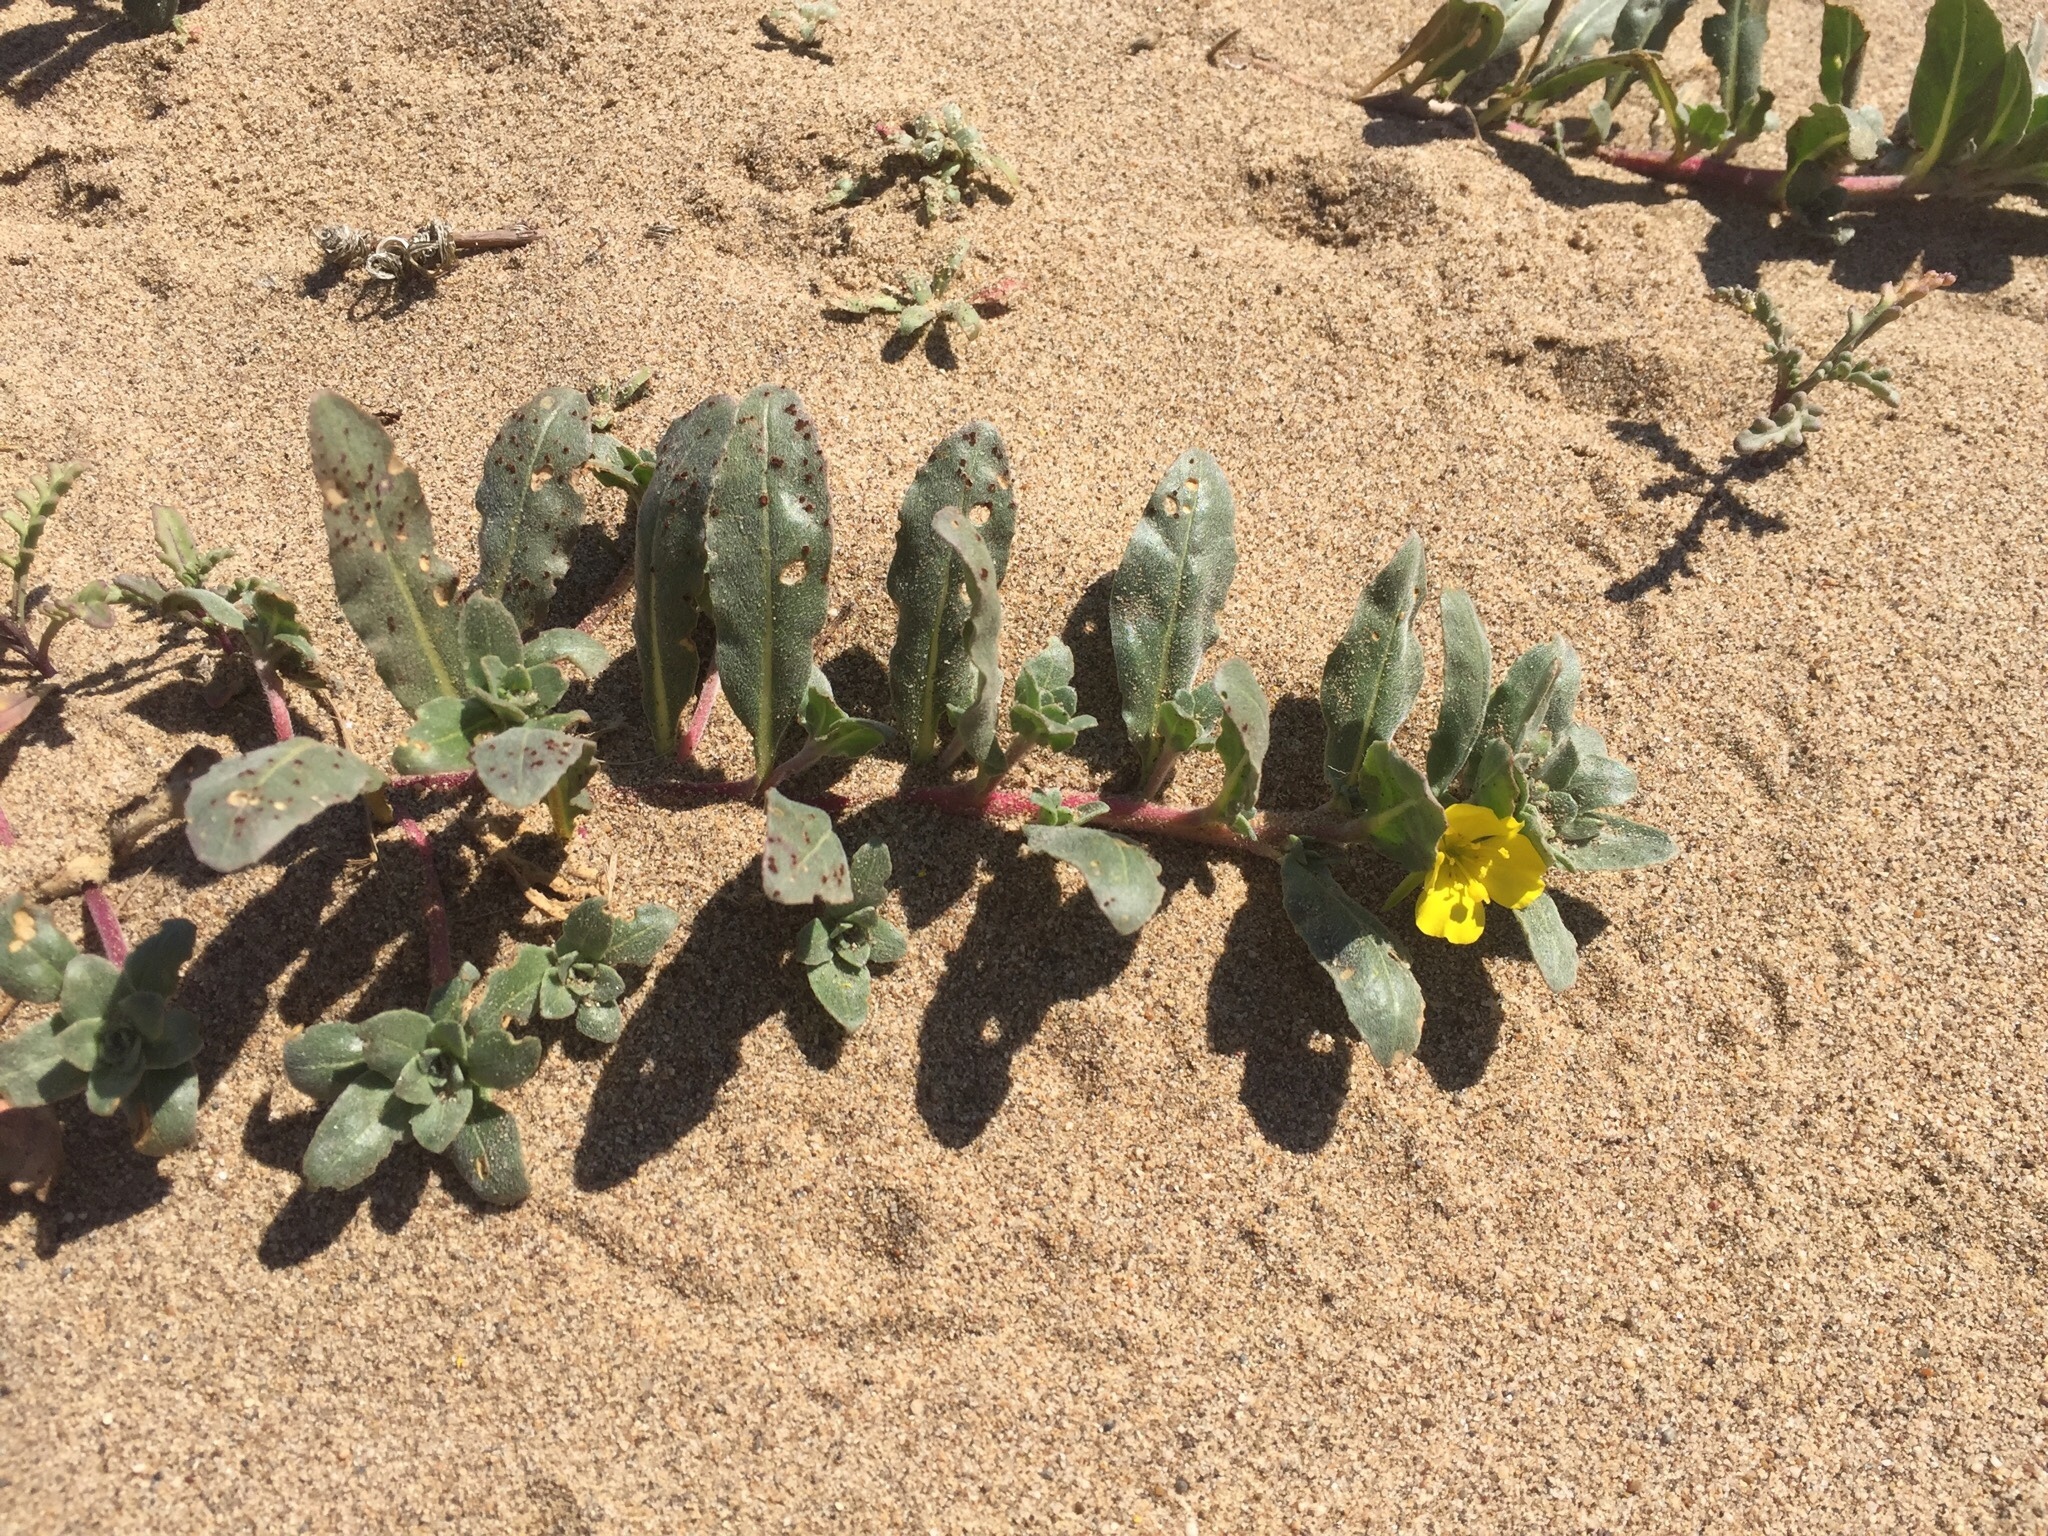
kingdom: Plantae
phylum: Tracheophyta
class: Magnoliopsida
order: Myrtales
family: Onagraceae
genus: Camissoniopsis
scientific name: Camissoniopsis cheiranthifolia
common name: Beach suncup
